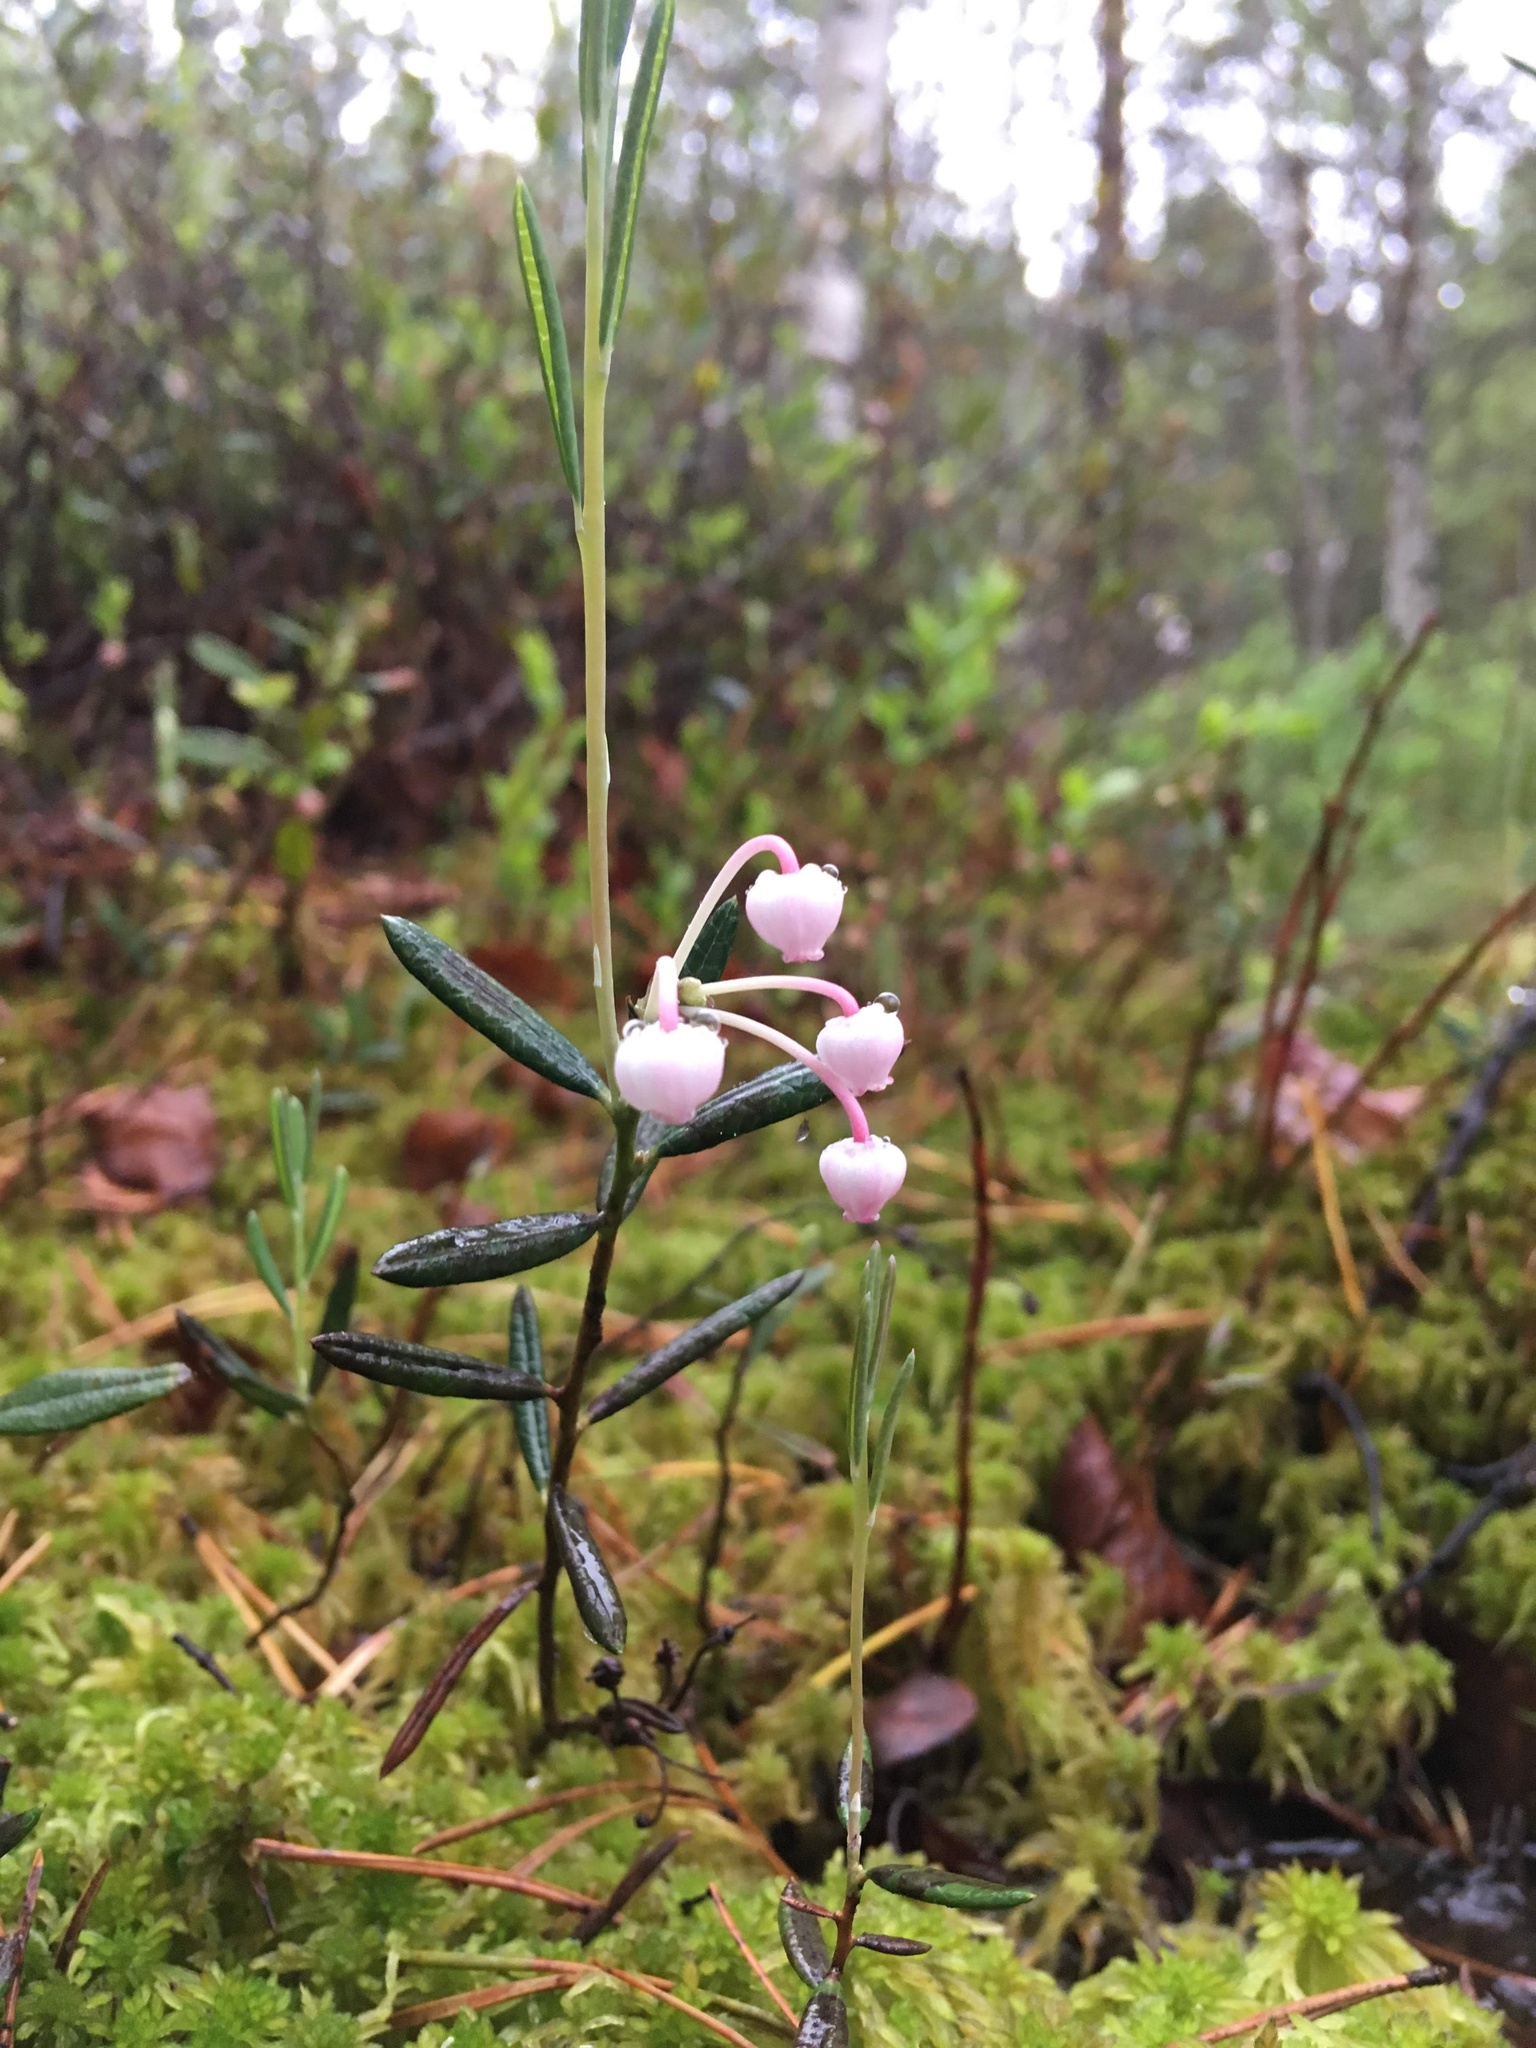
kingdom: Plantae
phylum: Tracheophyta
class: Magnoliopsida
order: Ericales
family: Ericaceae
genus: Andromeda
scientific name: Andromeda polifolia
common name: Bog-rosemary
